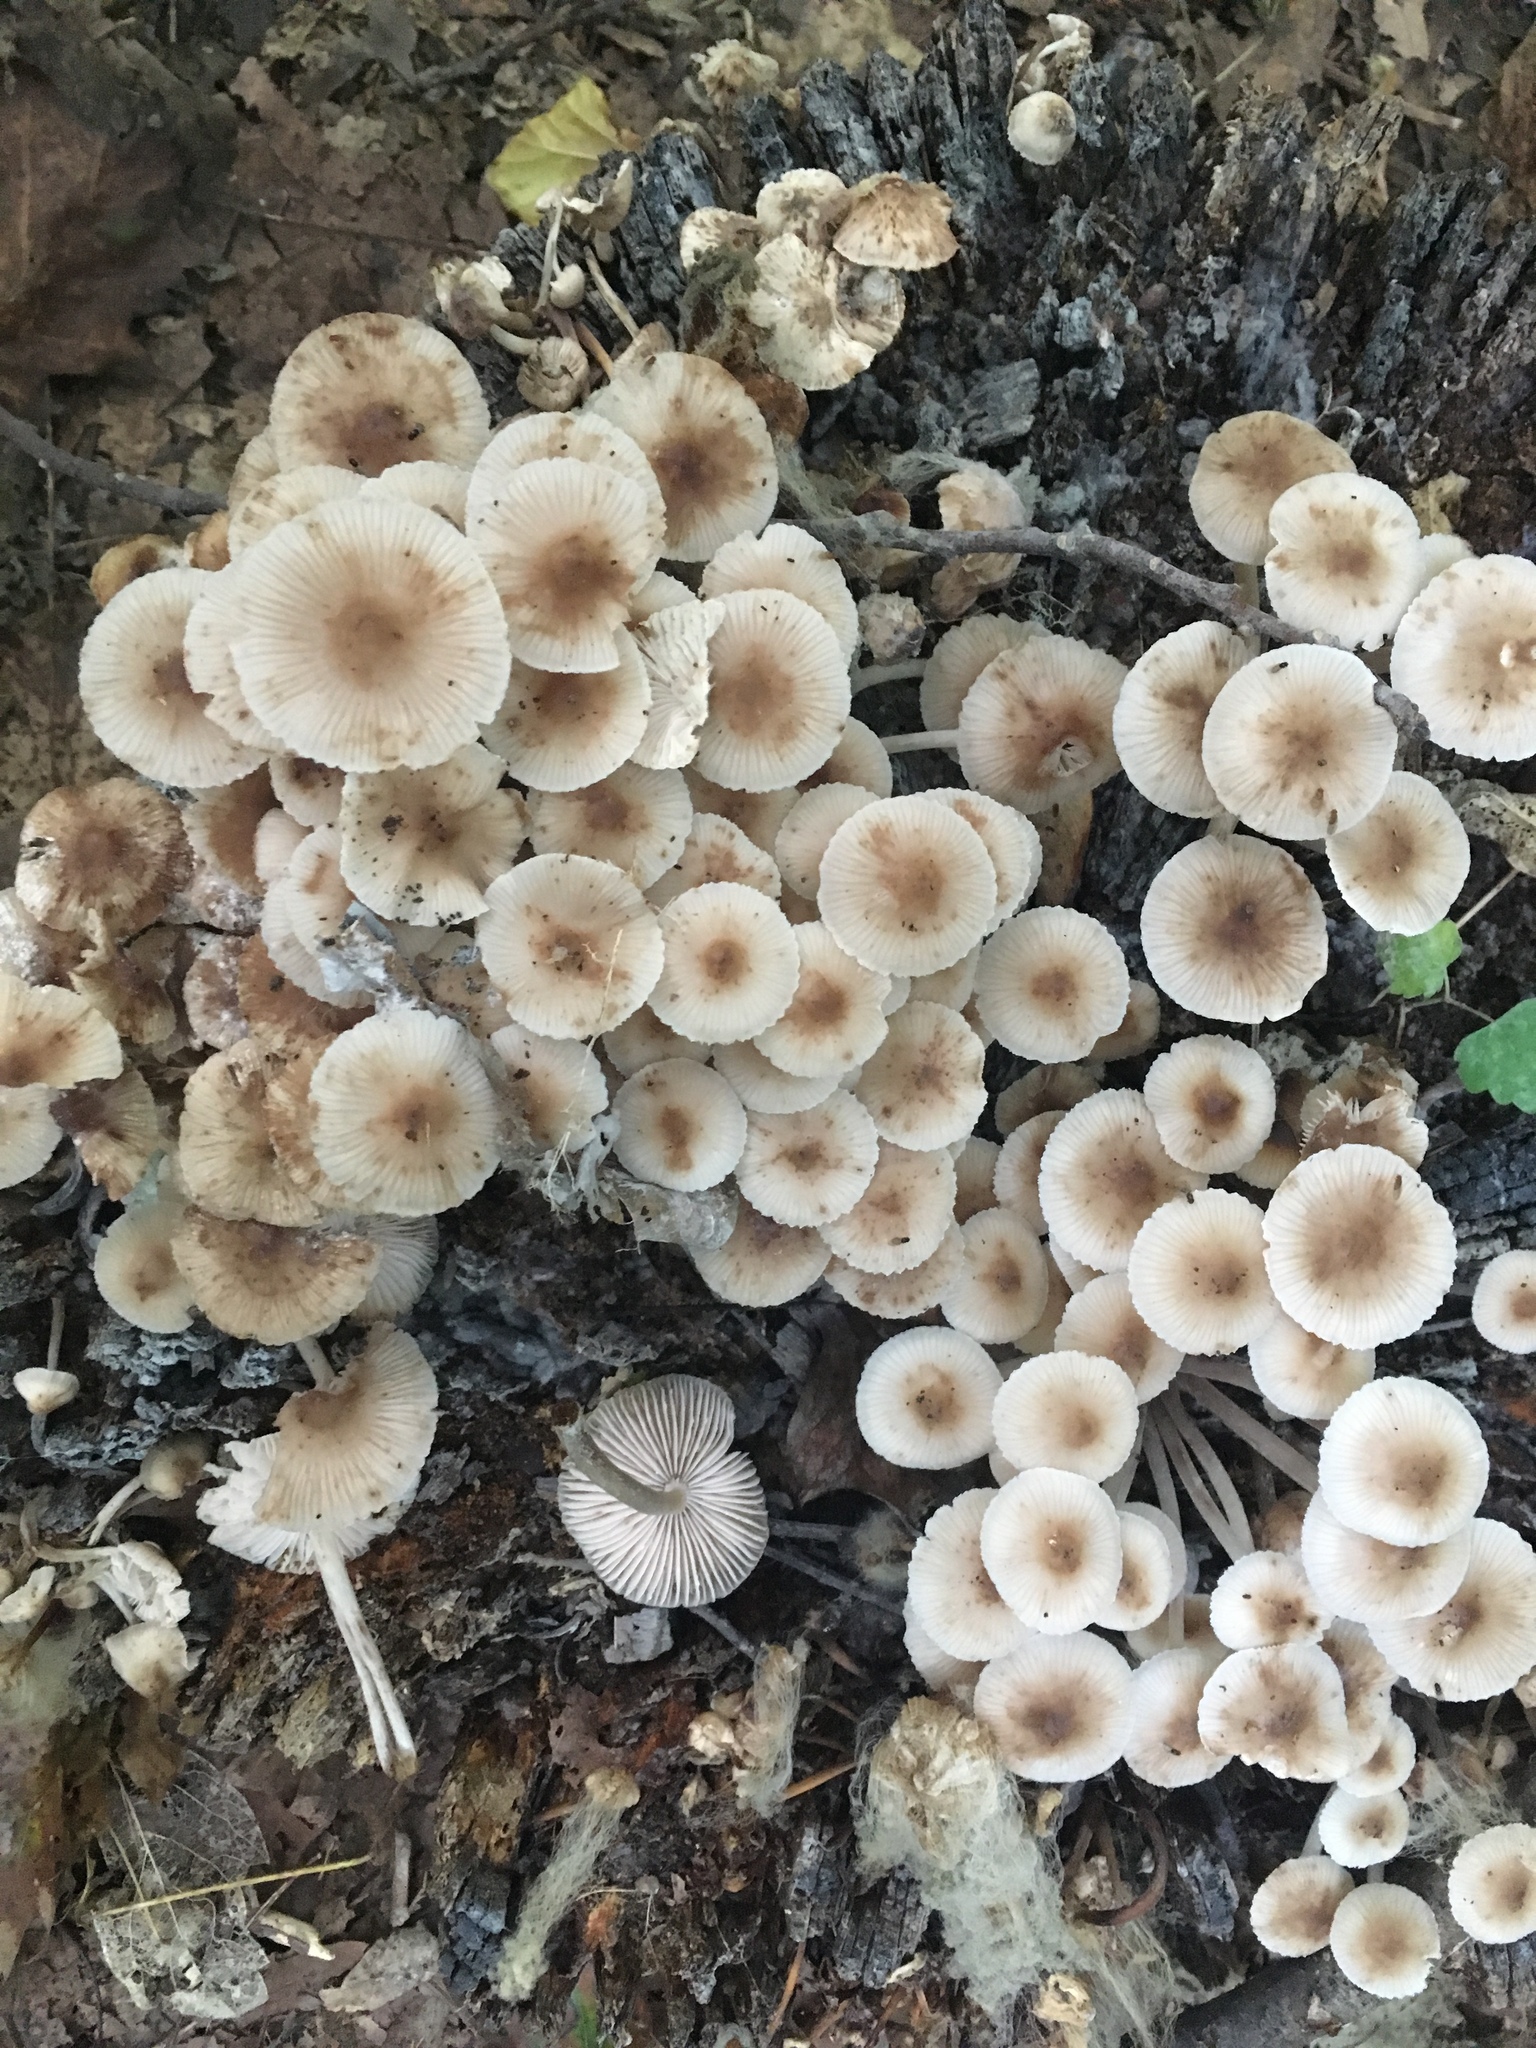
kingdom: Fungi
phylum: Basidiomycota
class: Agaricomycetes
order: Agaricales
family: Mycenaceae
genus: Mycena
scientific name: Mycena galericulata
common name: Bonnet mycena
